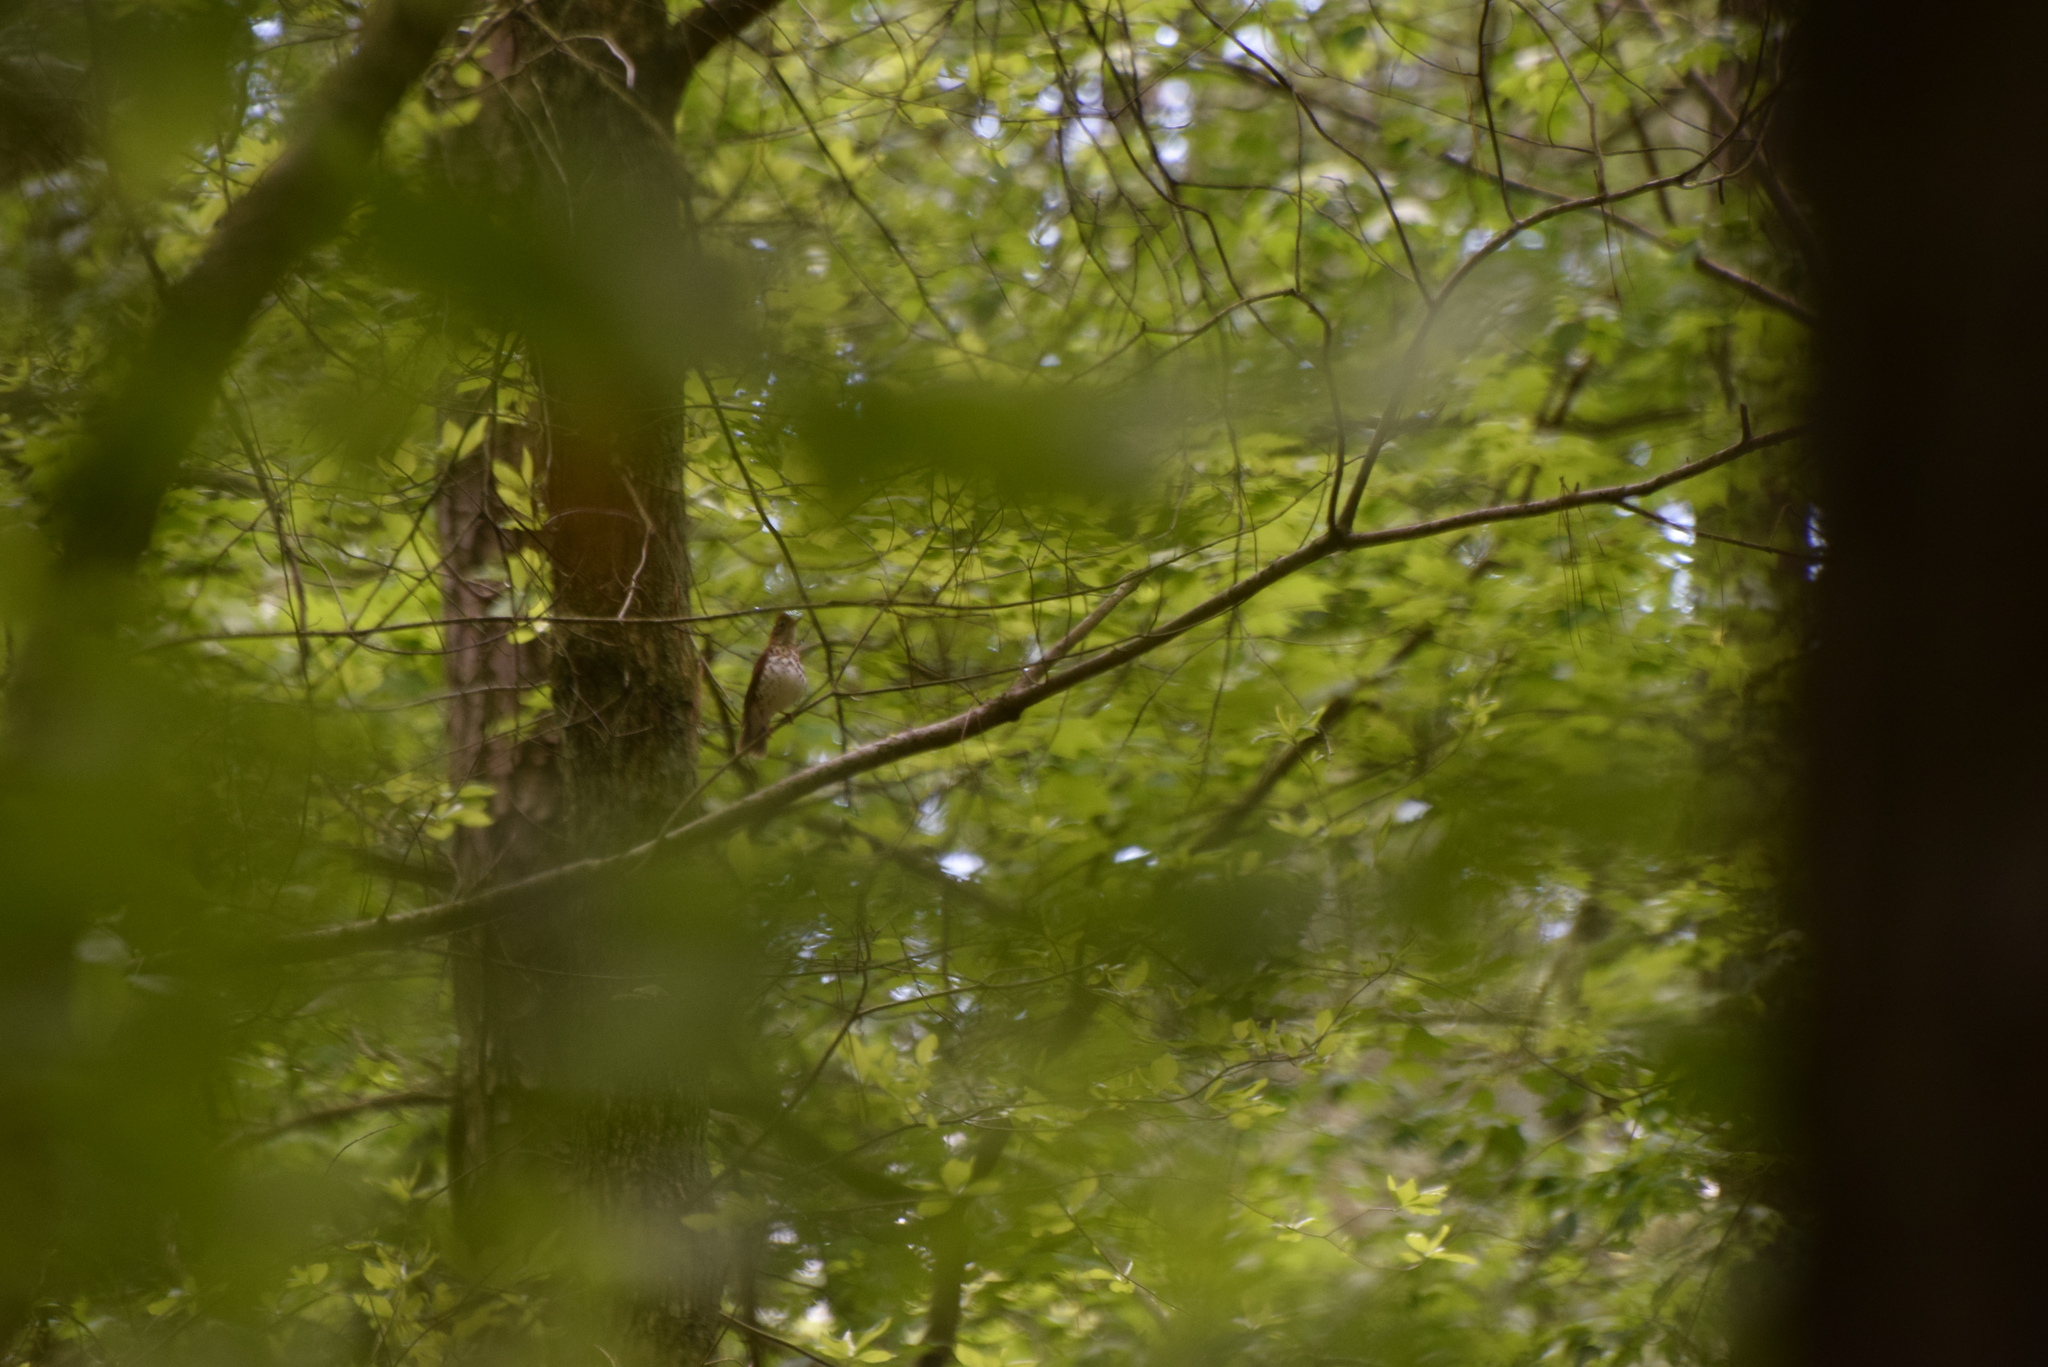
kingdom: Animalia
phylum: Chordata
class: Aves
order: Passeriformes
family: Turdidae
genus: Hylocichla
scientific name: Hylocichla mustelina
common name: Wood thrush
